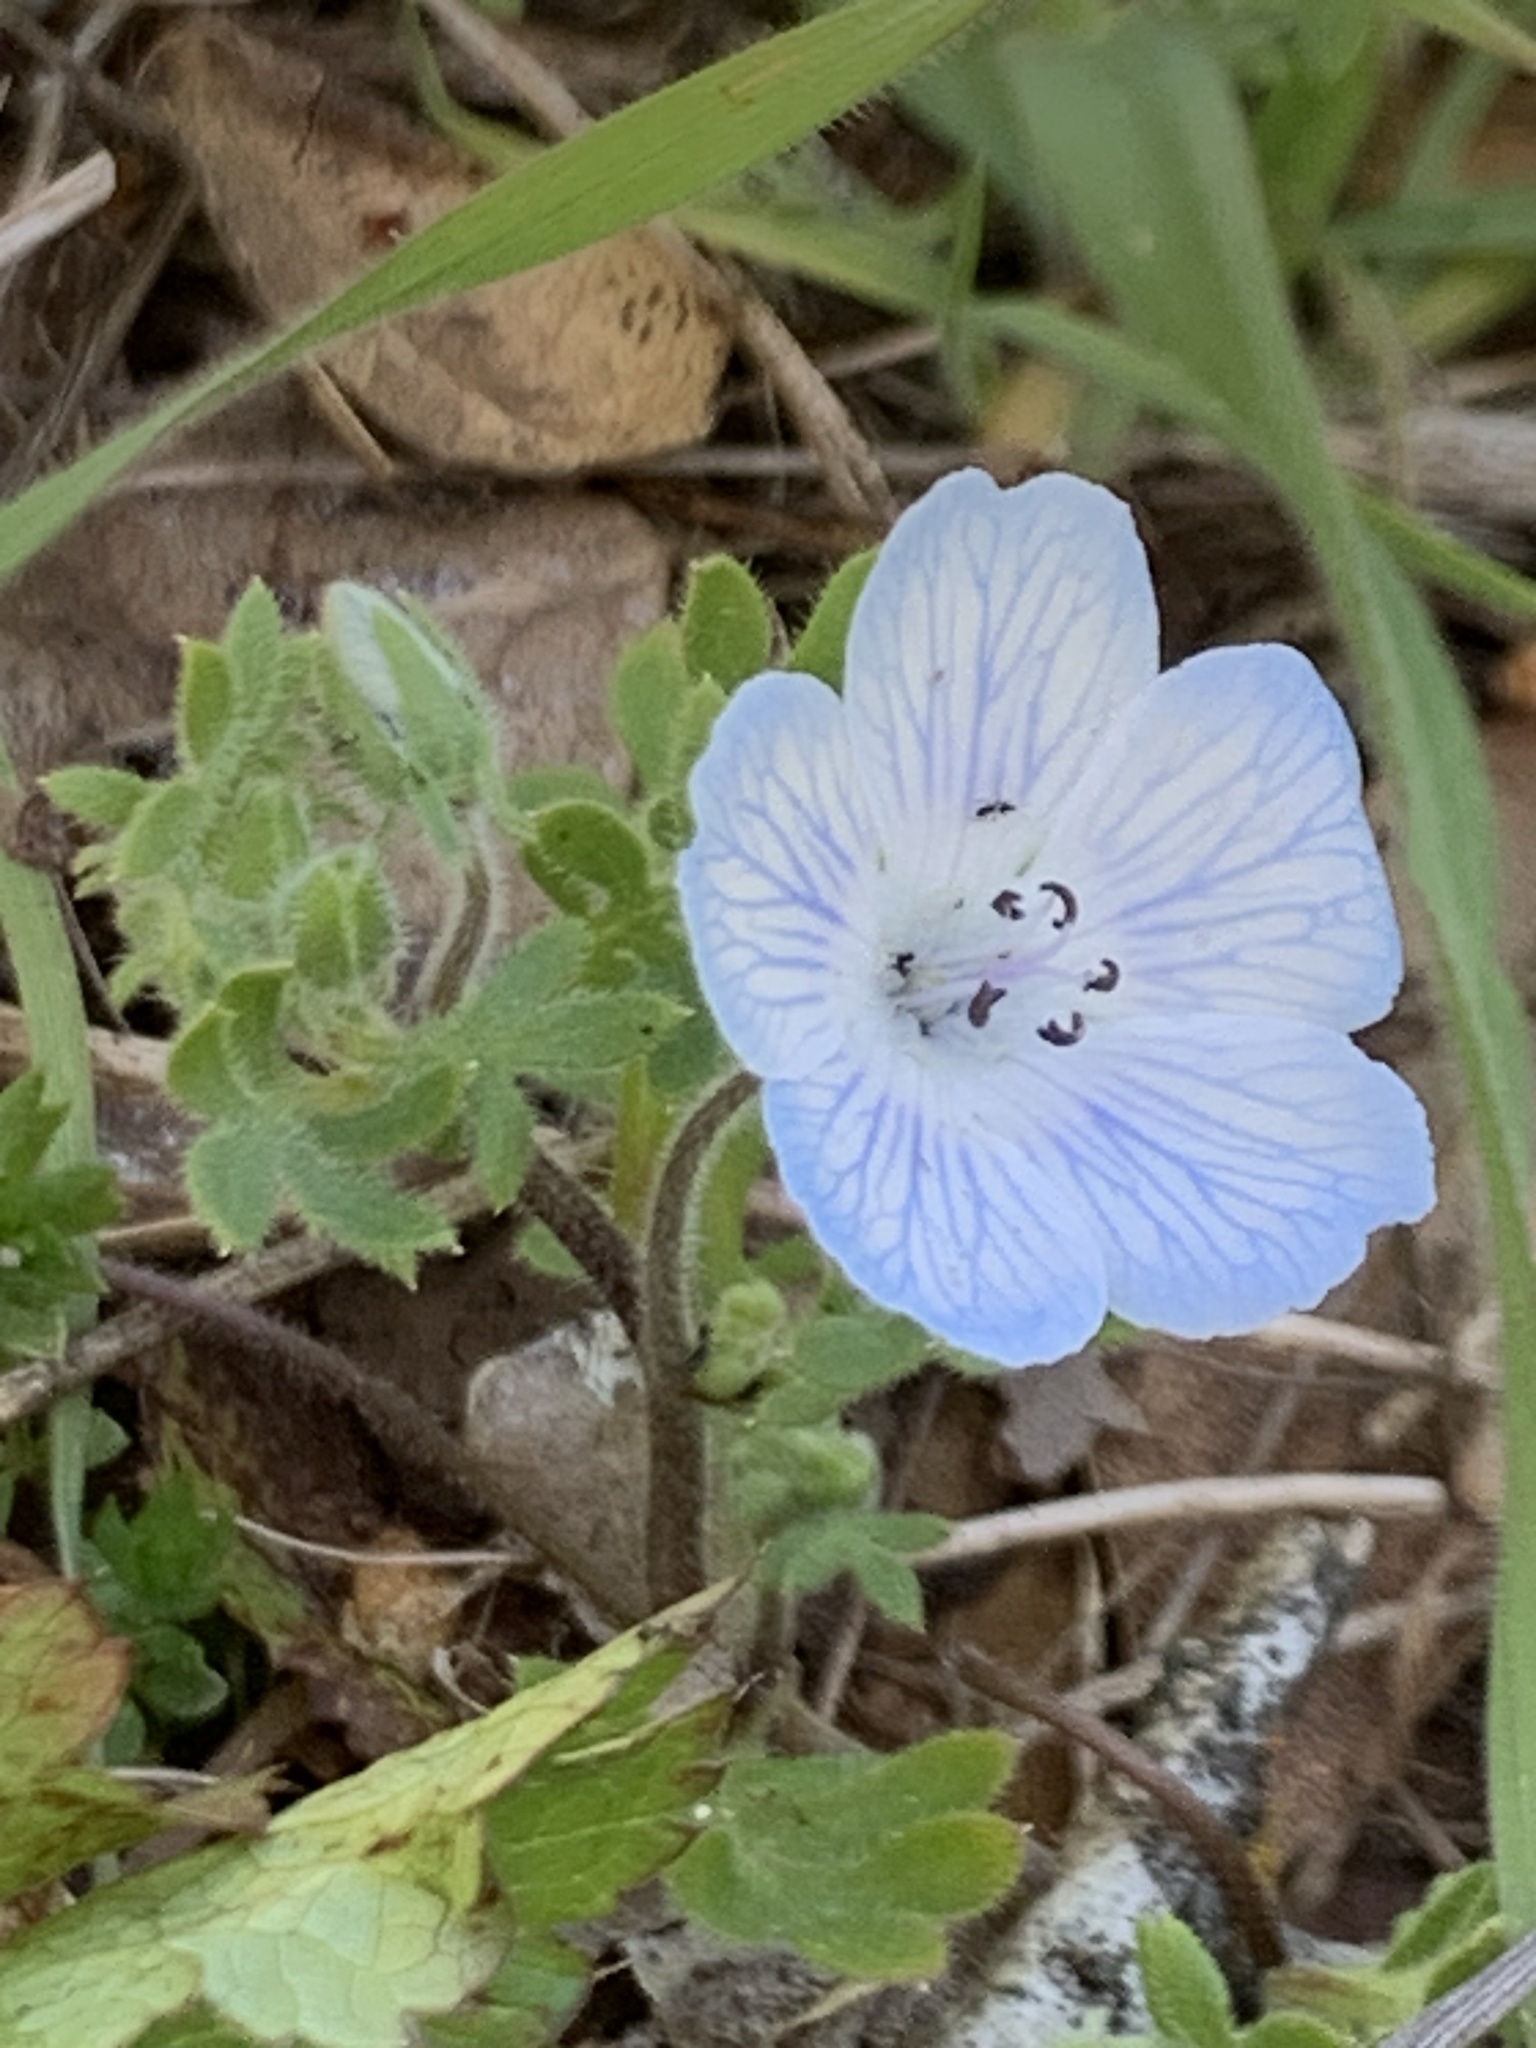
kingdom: Plantae
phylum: Tracheophyta
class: Magnoliopsida
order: Boraginales
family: Hydrophyllaceae
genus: Nemophila
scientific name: Nemophila menziesii
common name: Baby's-blue-eyes
